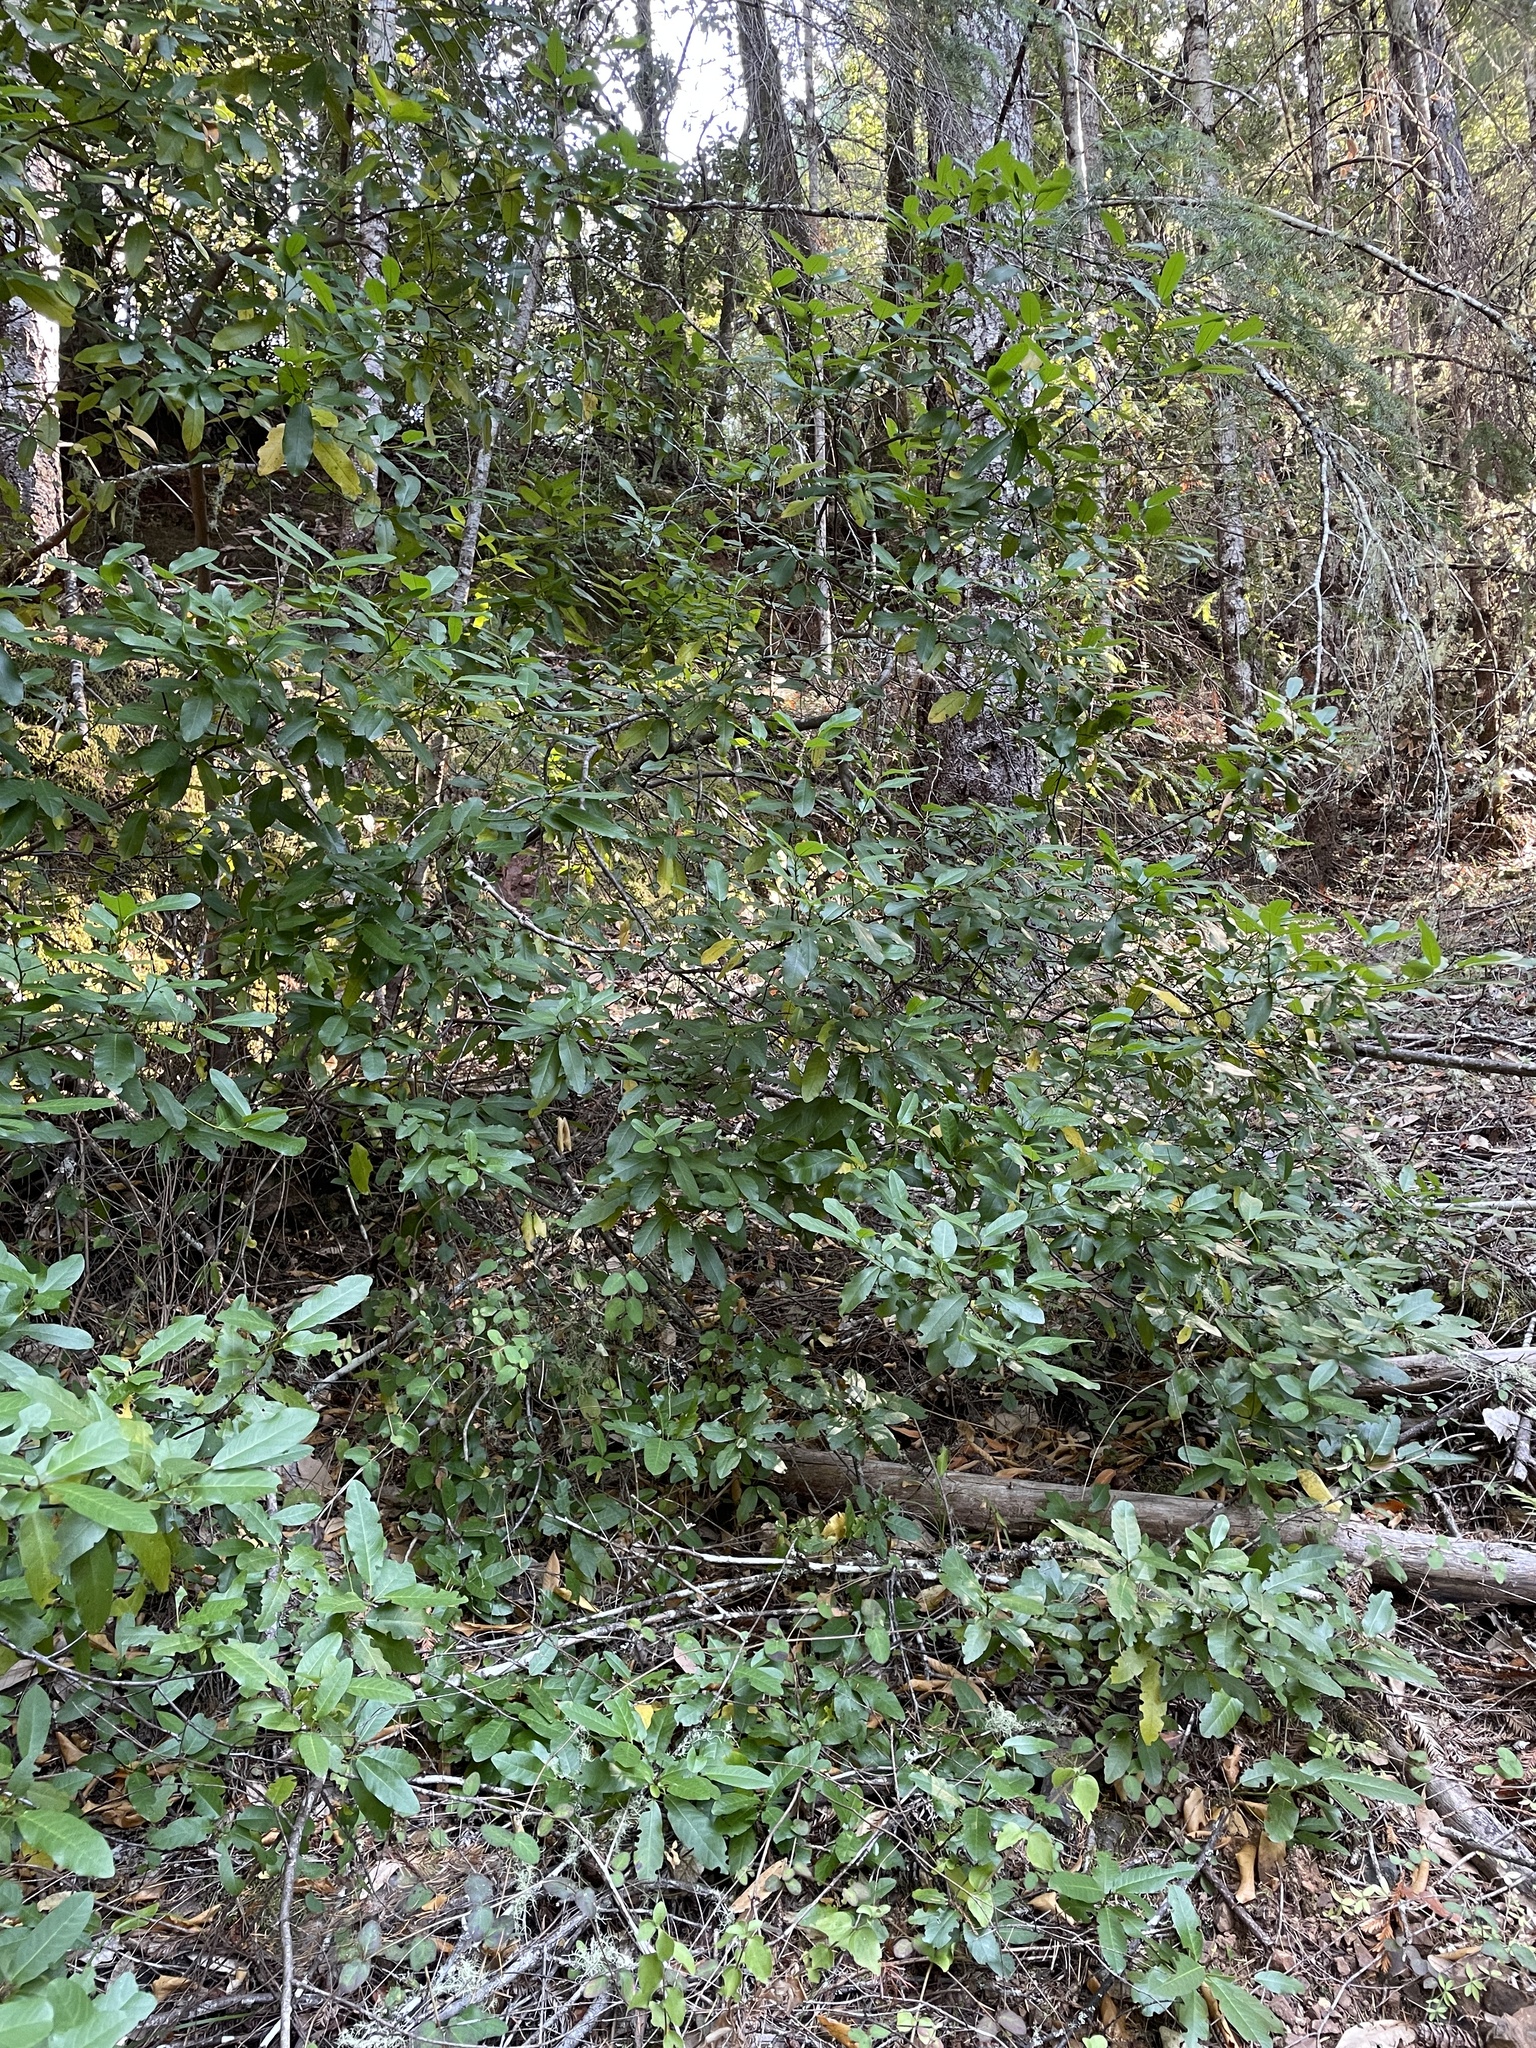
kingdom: Plantae
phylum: Tracheophyta
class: Magnoliopsida
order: Rosales
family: Rhamnaceae
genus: Frangula
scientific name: Frangula californica
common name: California buckthorn
